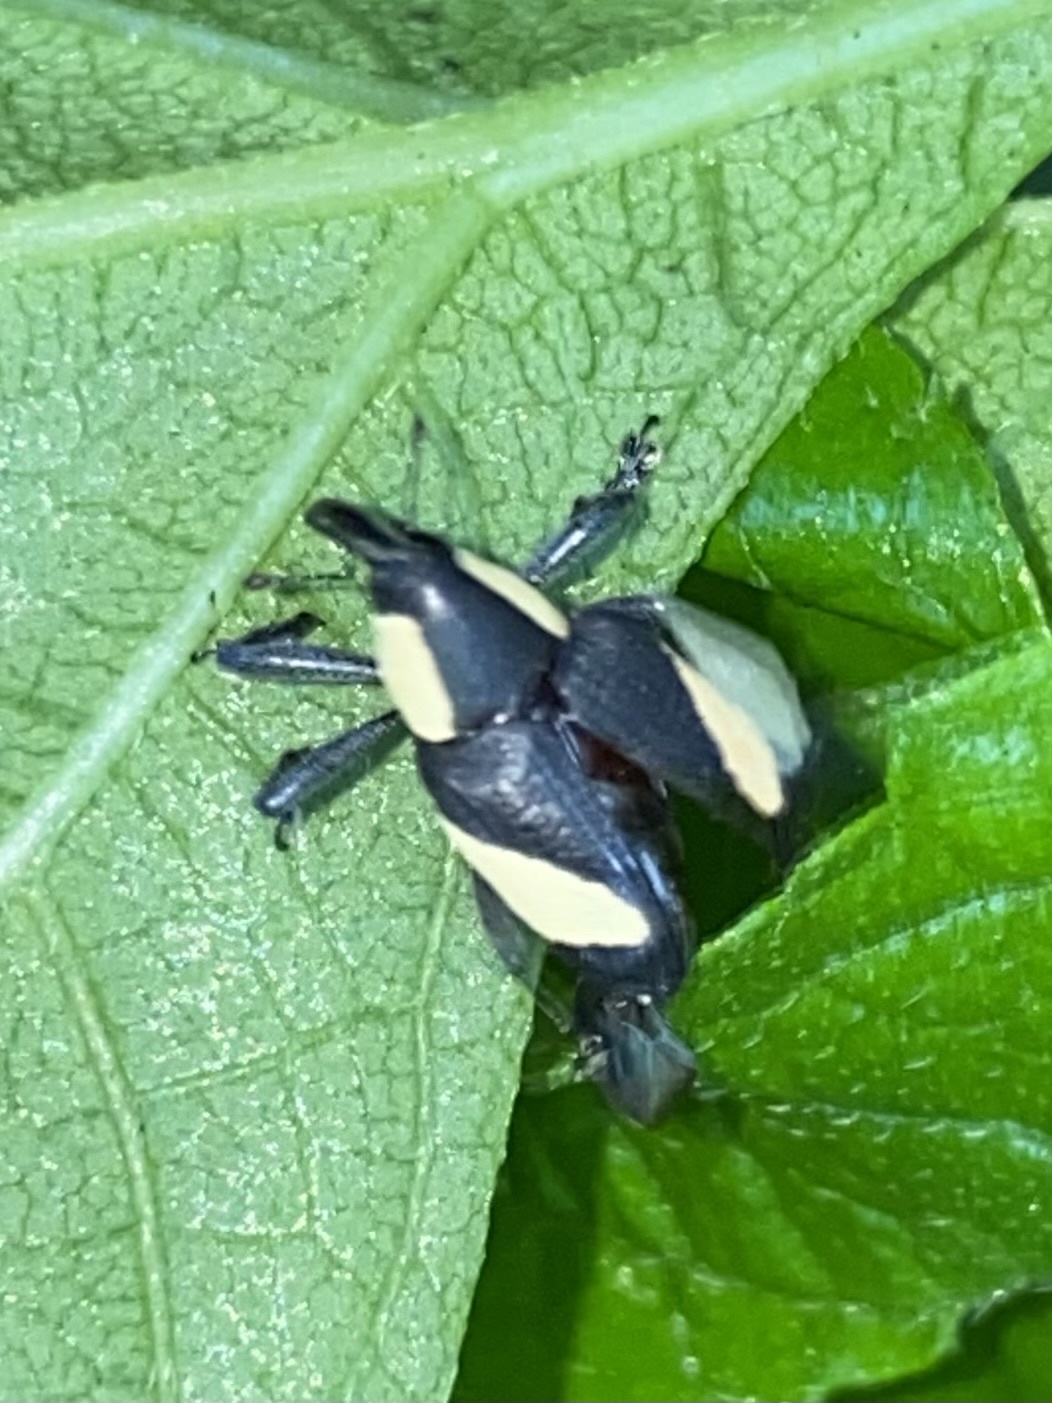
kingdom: Animalia
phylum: Arthropoda
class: Insecta
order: Coleoptera
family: Curculionidae
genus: Peridinetus
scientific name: Peridinetus distinctus
